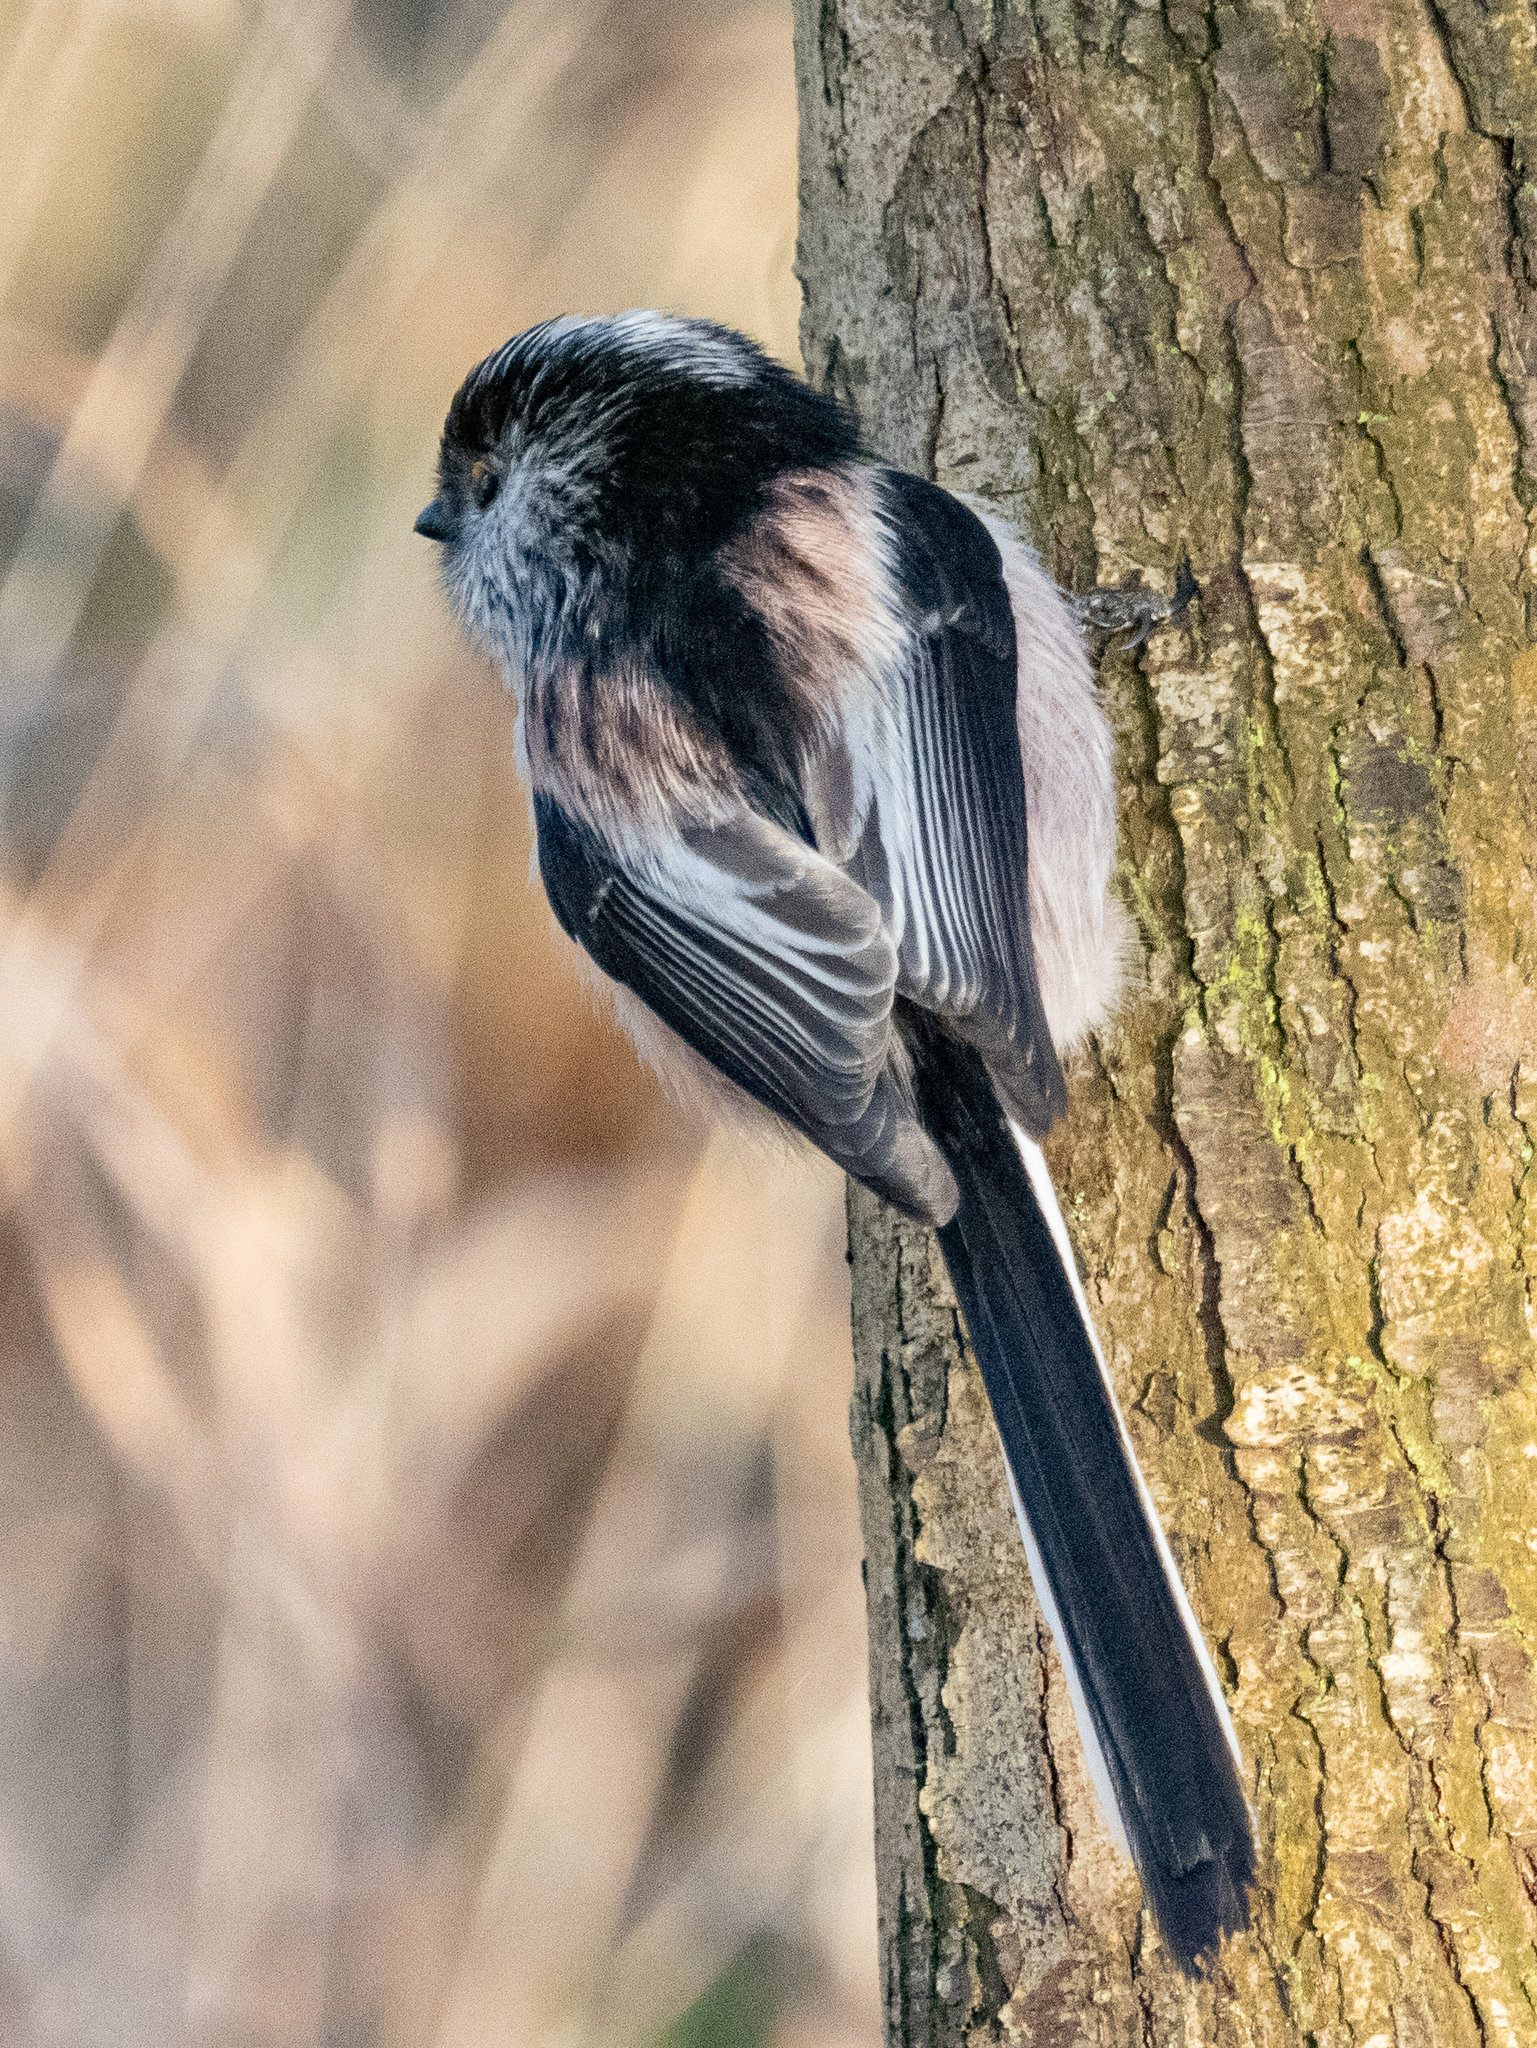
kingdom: Animalia
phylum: Chordata
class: Aves
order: Passeriformes
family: Aegithalidae
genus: Aegithalos
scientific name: Aegithalos caudatus
